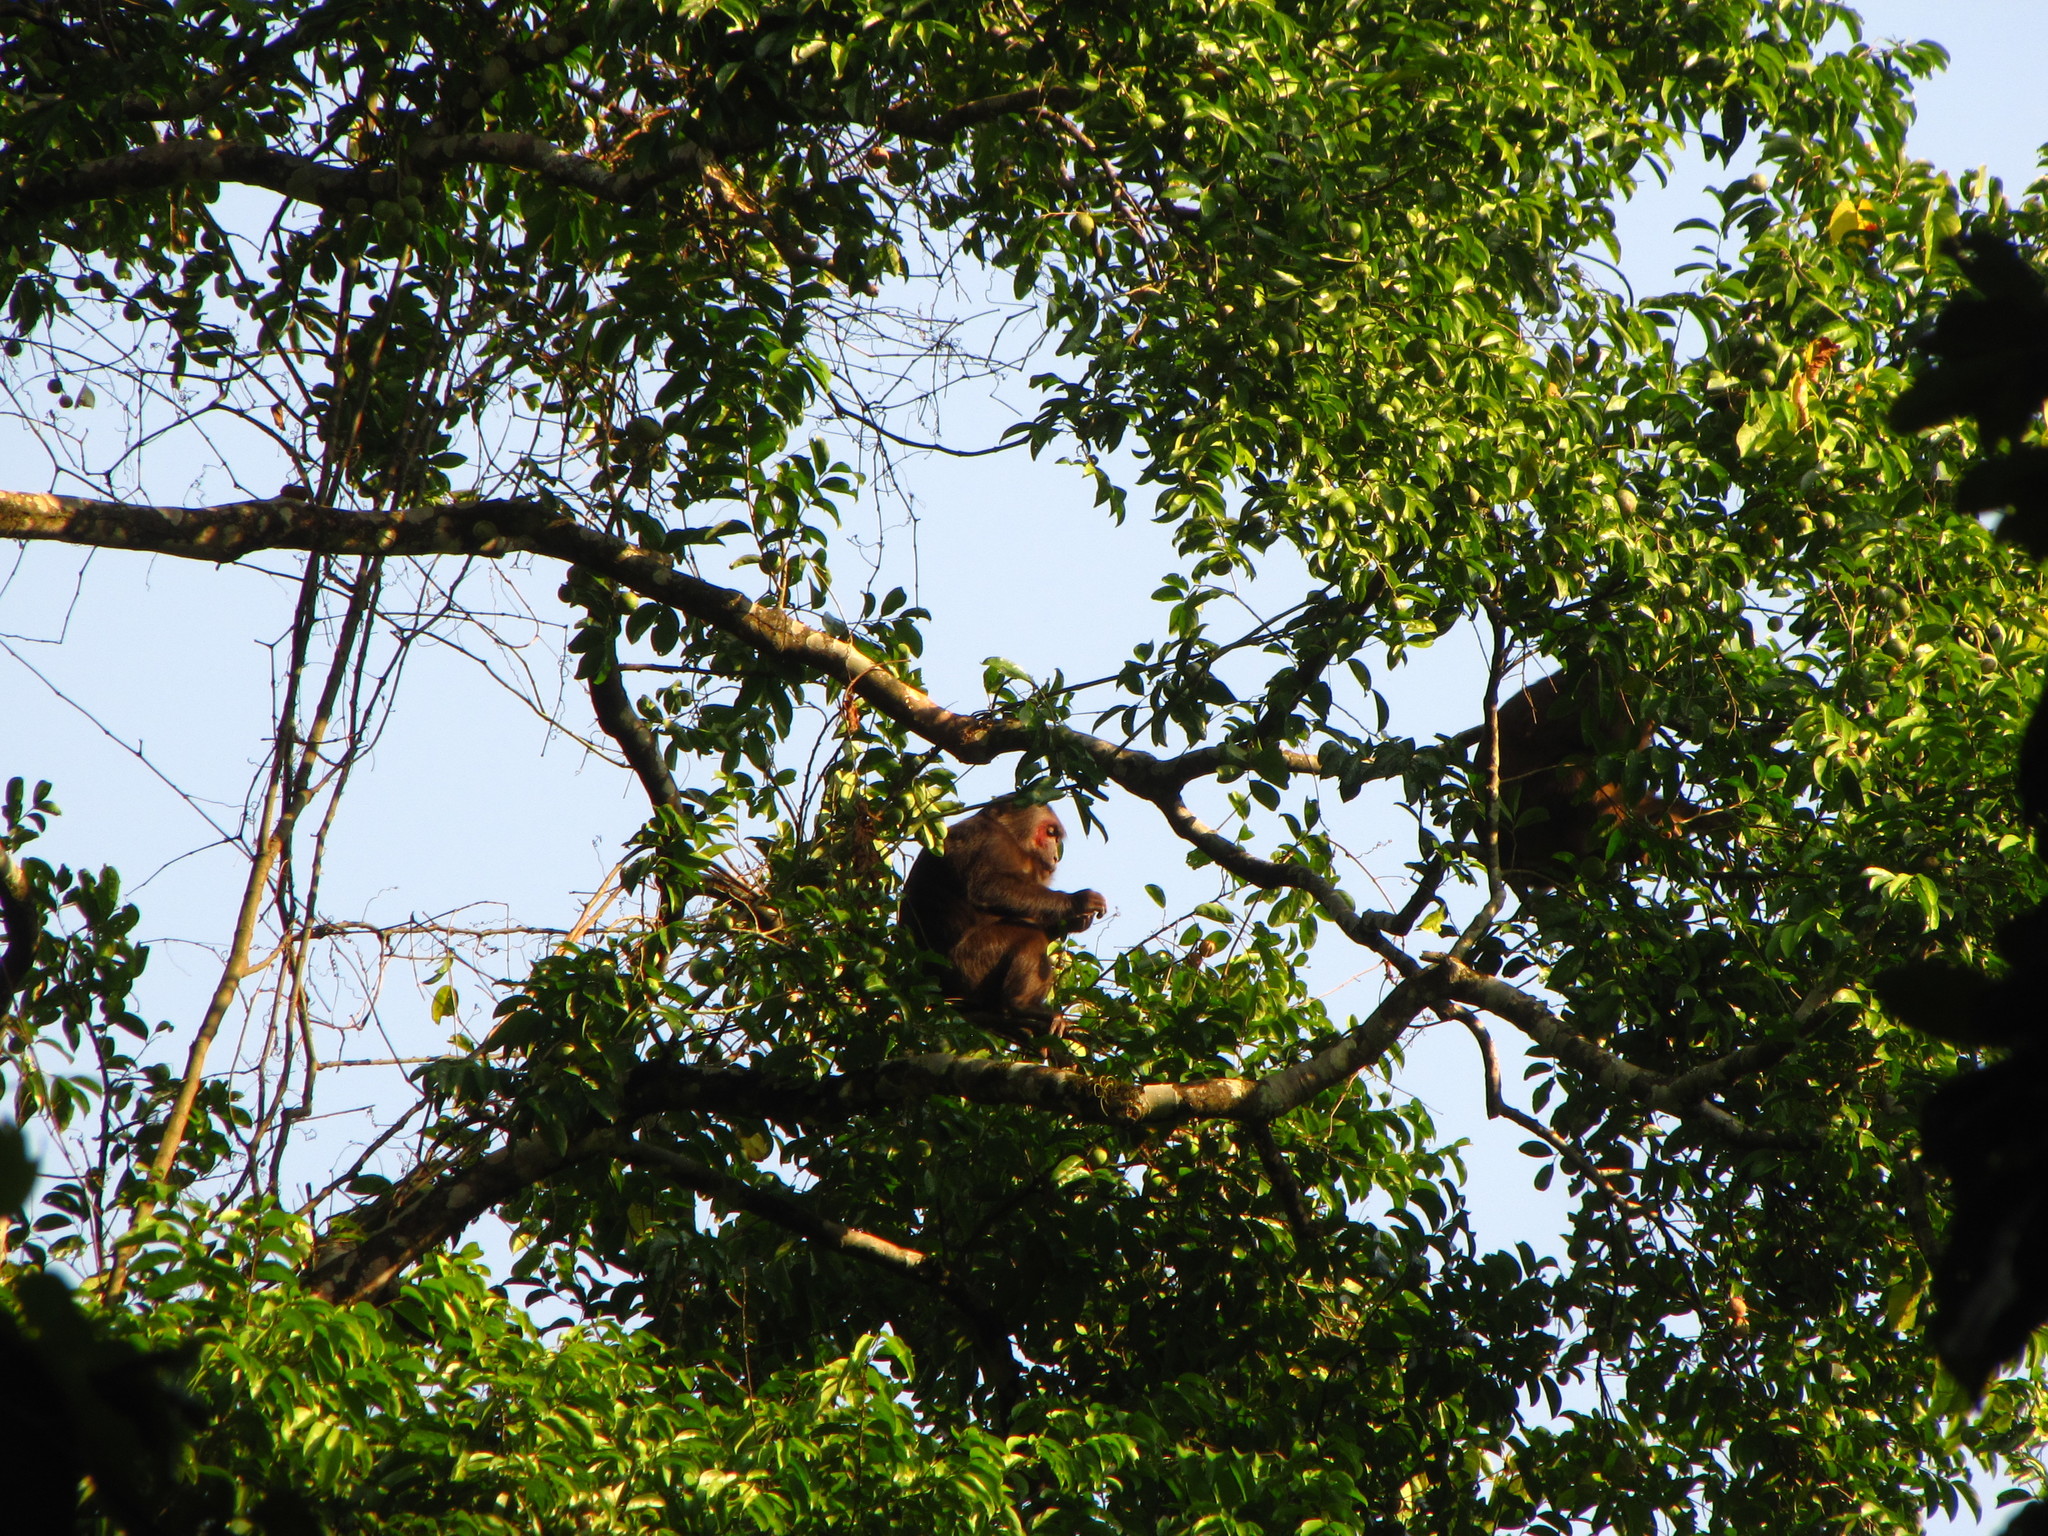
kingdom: Animalia
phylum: Chordata
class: Mammalia
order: Primates
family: Cercopithecidae
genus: Macaca
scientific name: Macaca arctoides
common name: Stump-tailed macaque
